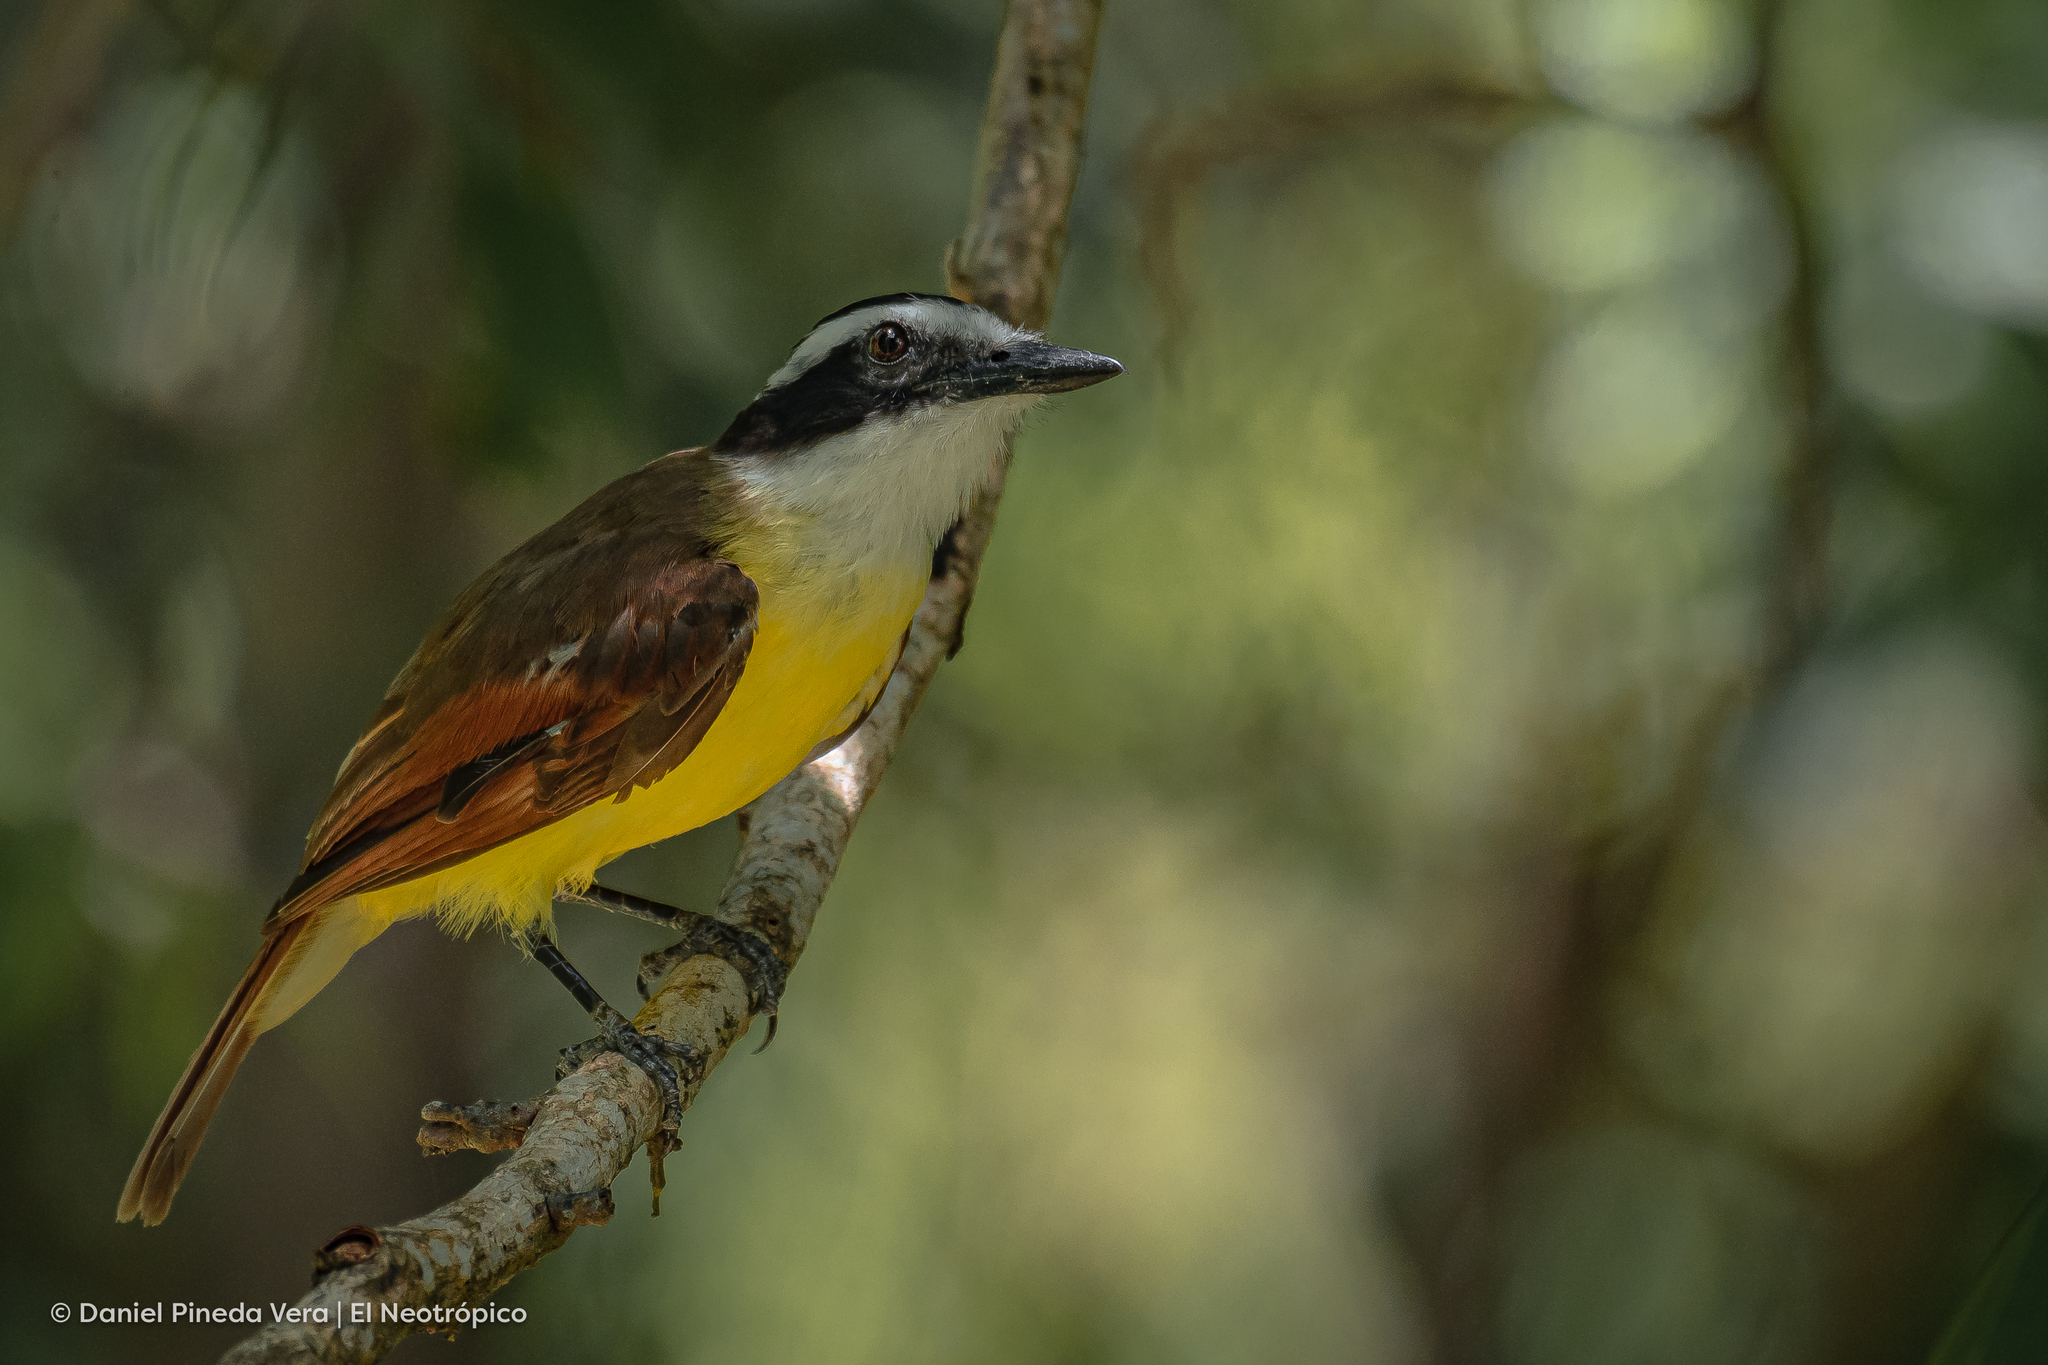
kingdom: Animalia
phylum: Chordata
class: Aves
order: Passeriformes
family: Tyrannidae
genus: Pitangus
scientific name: Pitangus sulphuratus
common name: Great kiskadee
